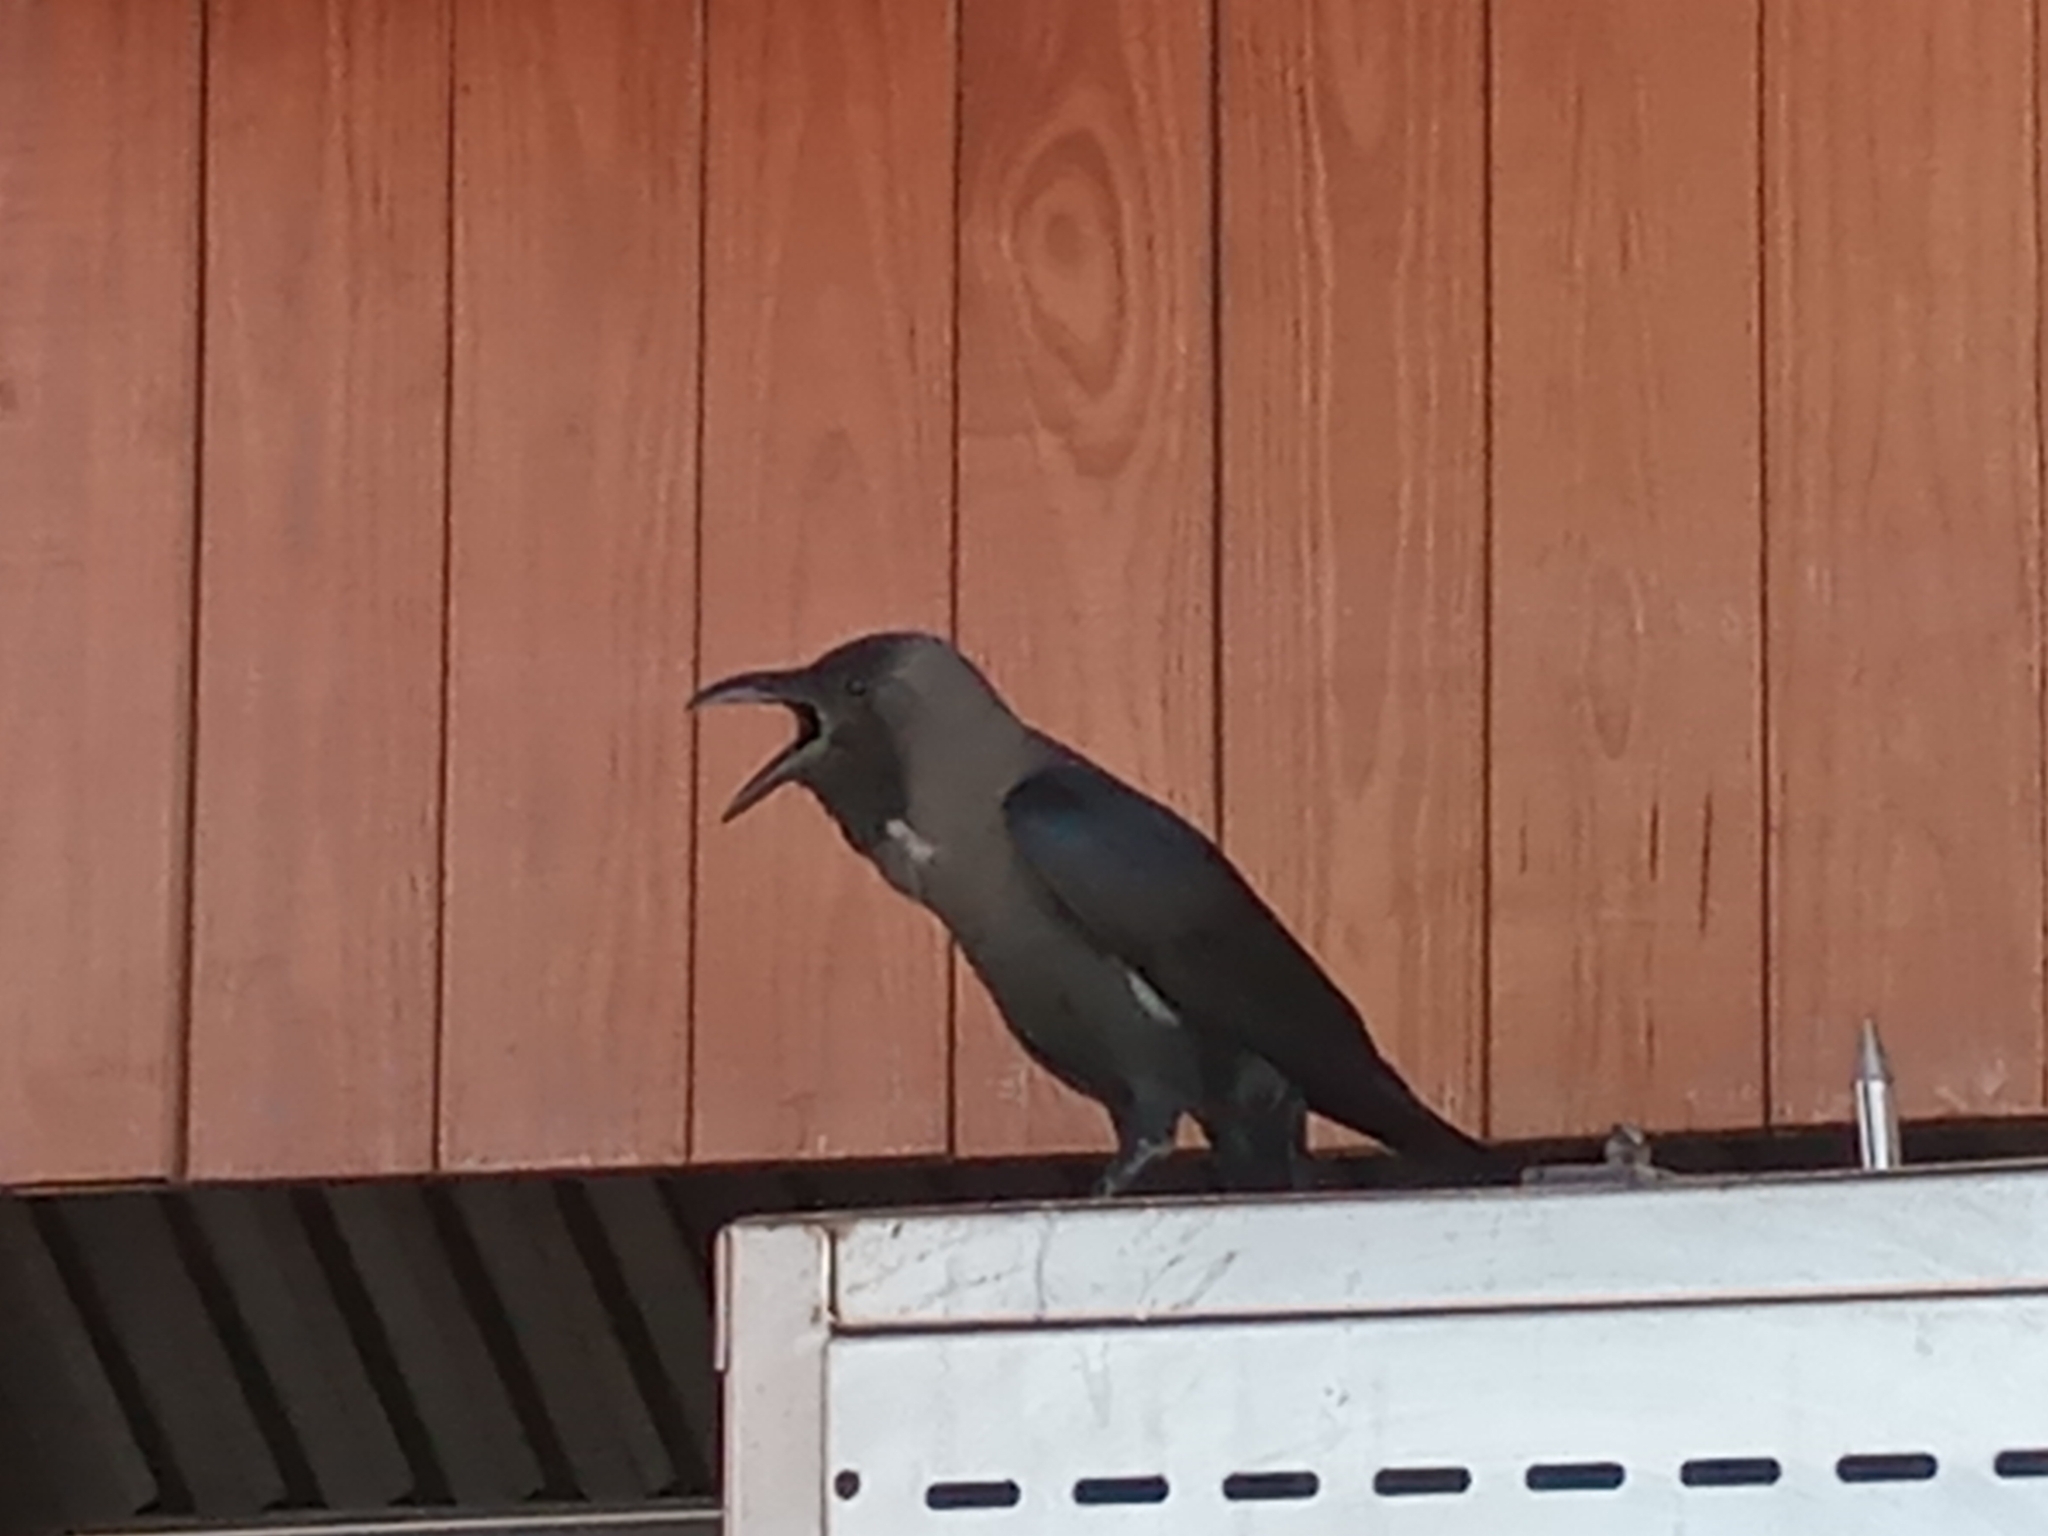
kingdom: Animalia
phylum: Chordata
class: Aves
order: Passeriformes
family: Corvidae
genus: Corvus
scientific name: Corvus splendens
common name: House crow
